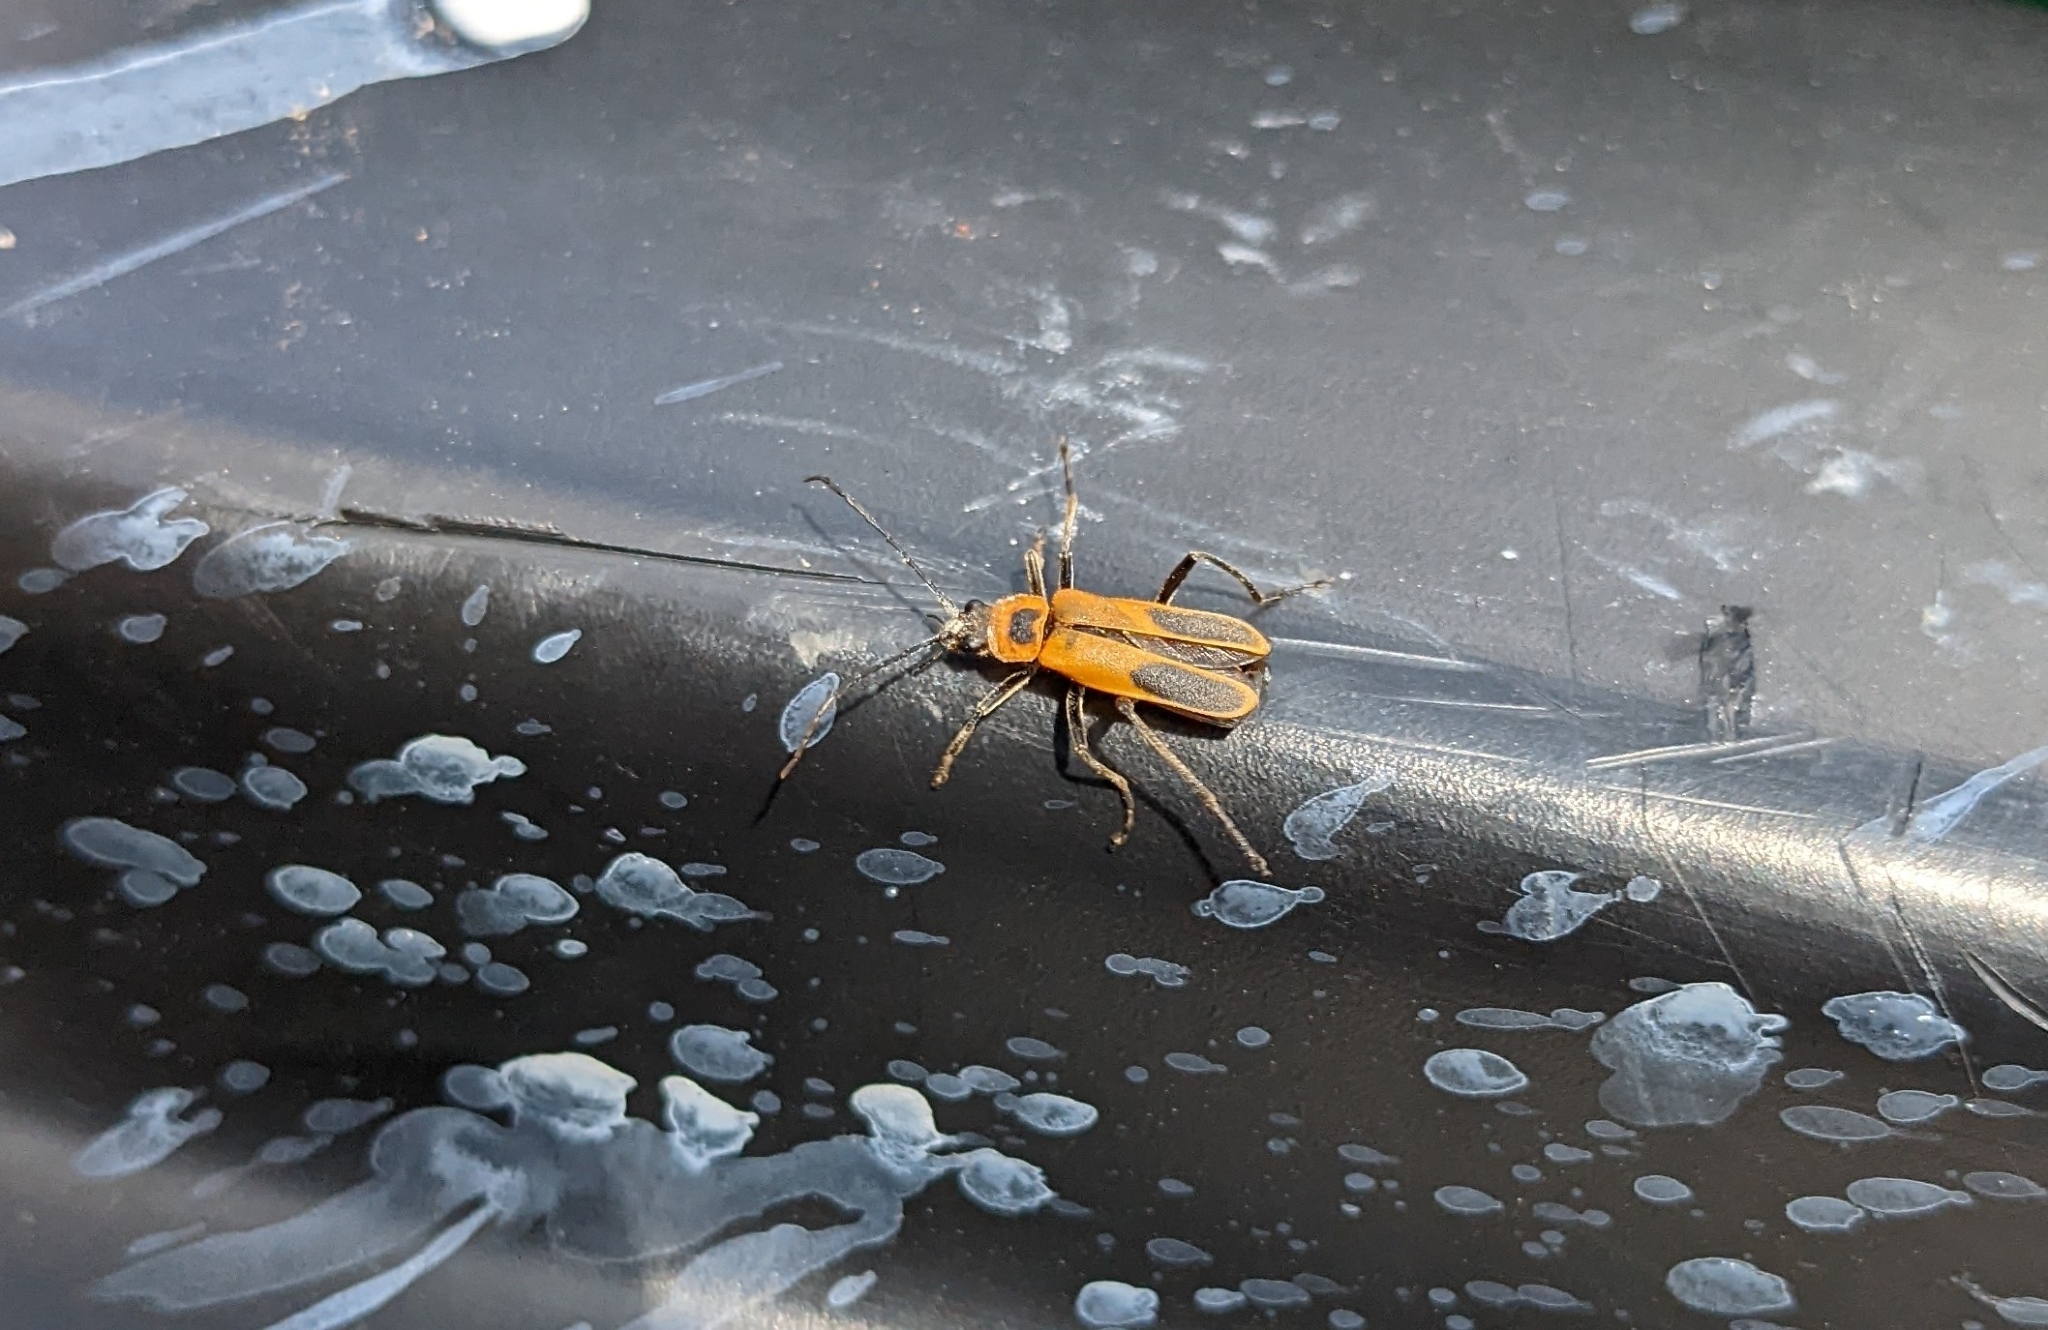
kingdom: Animalia
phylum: Arthropoda
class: Insecta
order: Coleoptera
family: Cantharidae
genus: Chauliognathus
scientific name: Chauliognathus pensylvanicus
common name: Goldenrod soldier beetle
